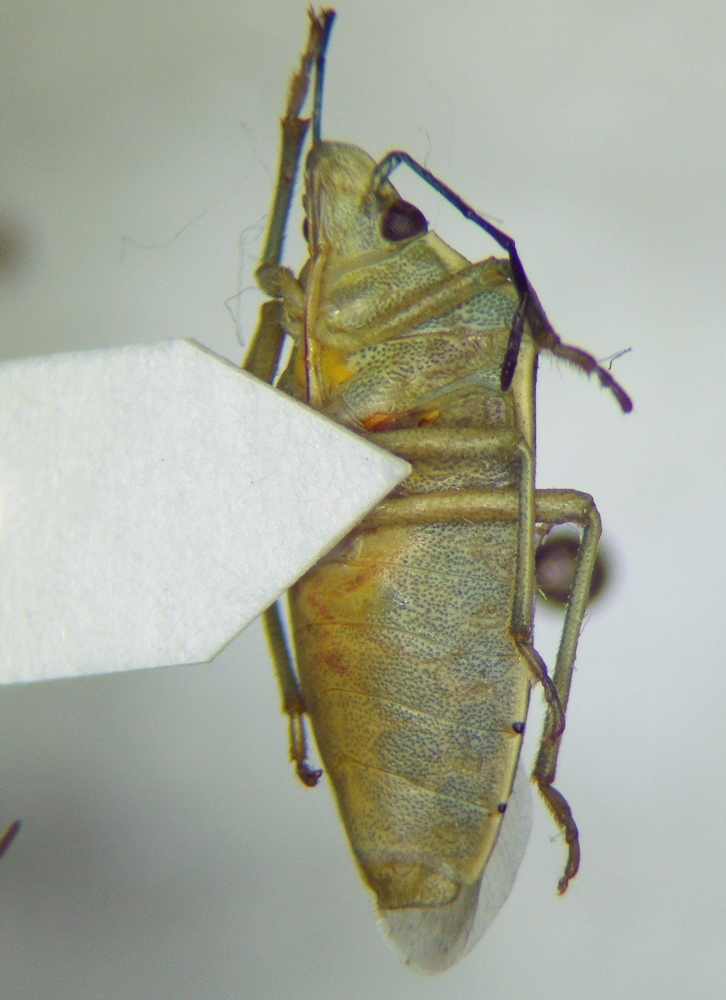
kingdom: Animalia
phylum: Arthropoda
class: Insecta
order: Hemiptera
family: Pentatomidae
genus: Brachynema
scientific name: Brachynema germarii
